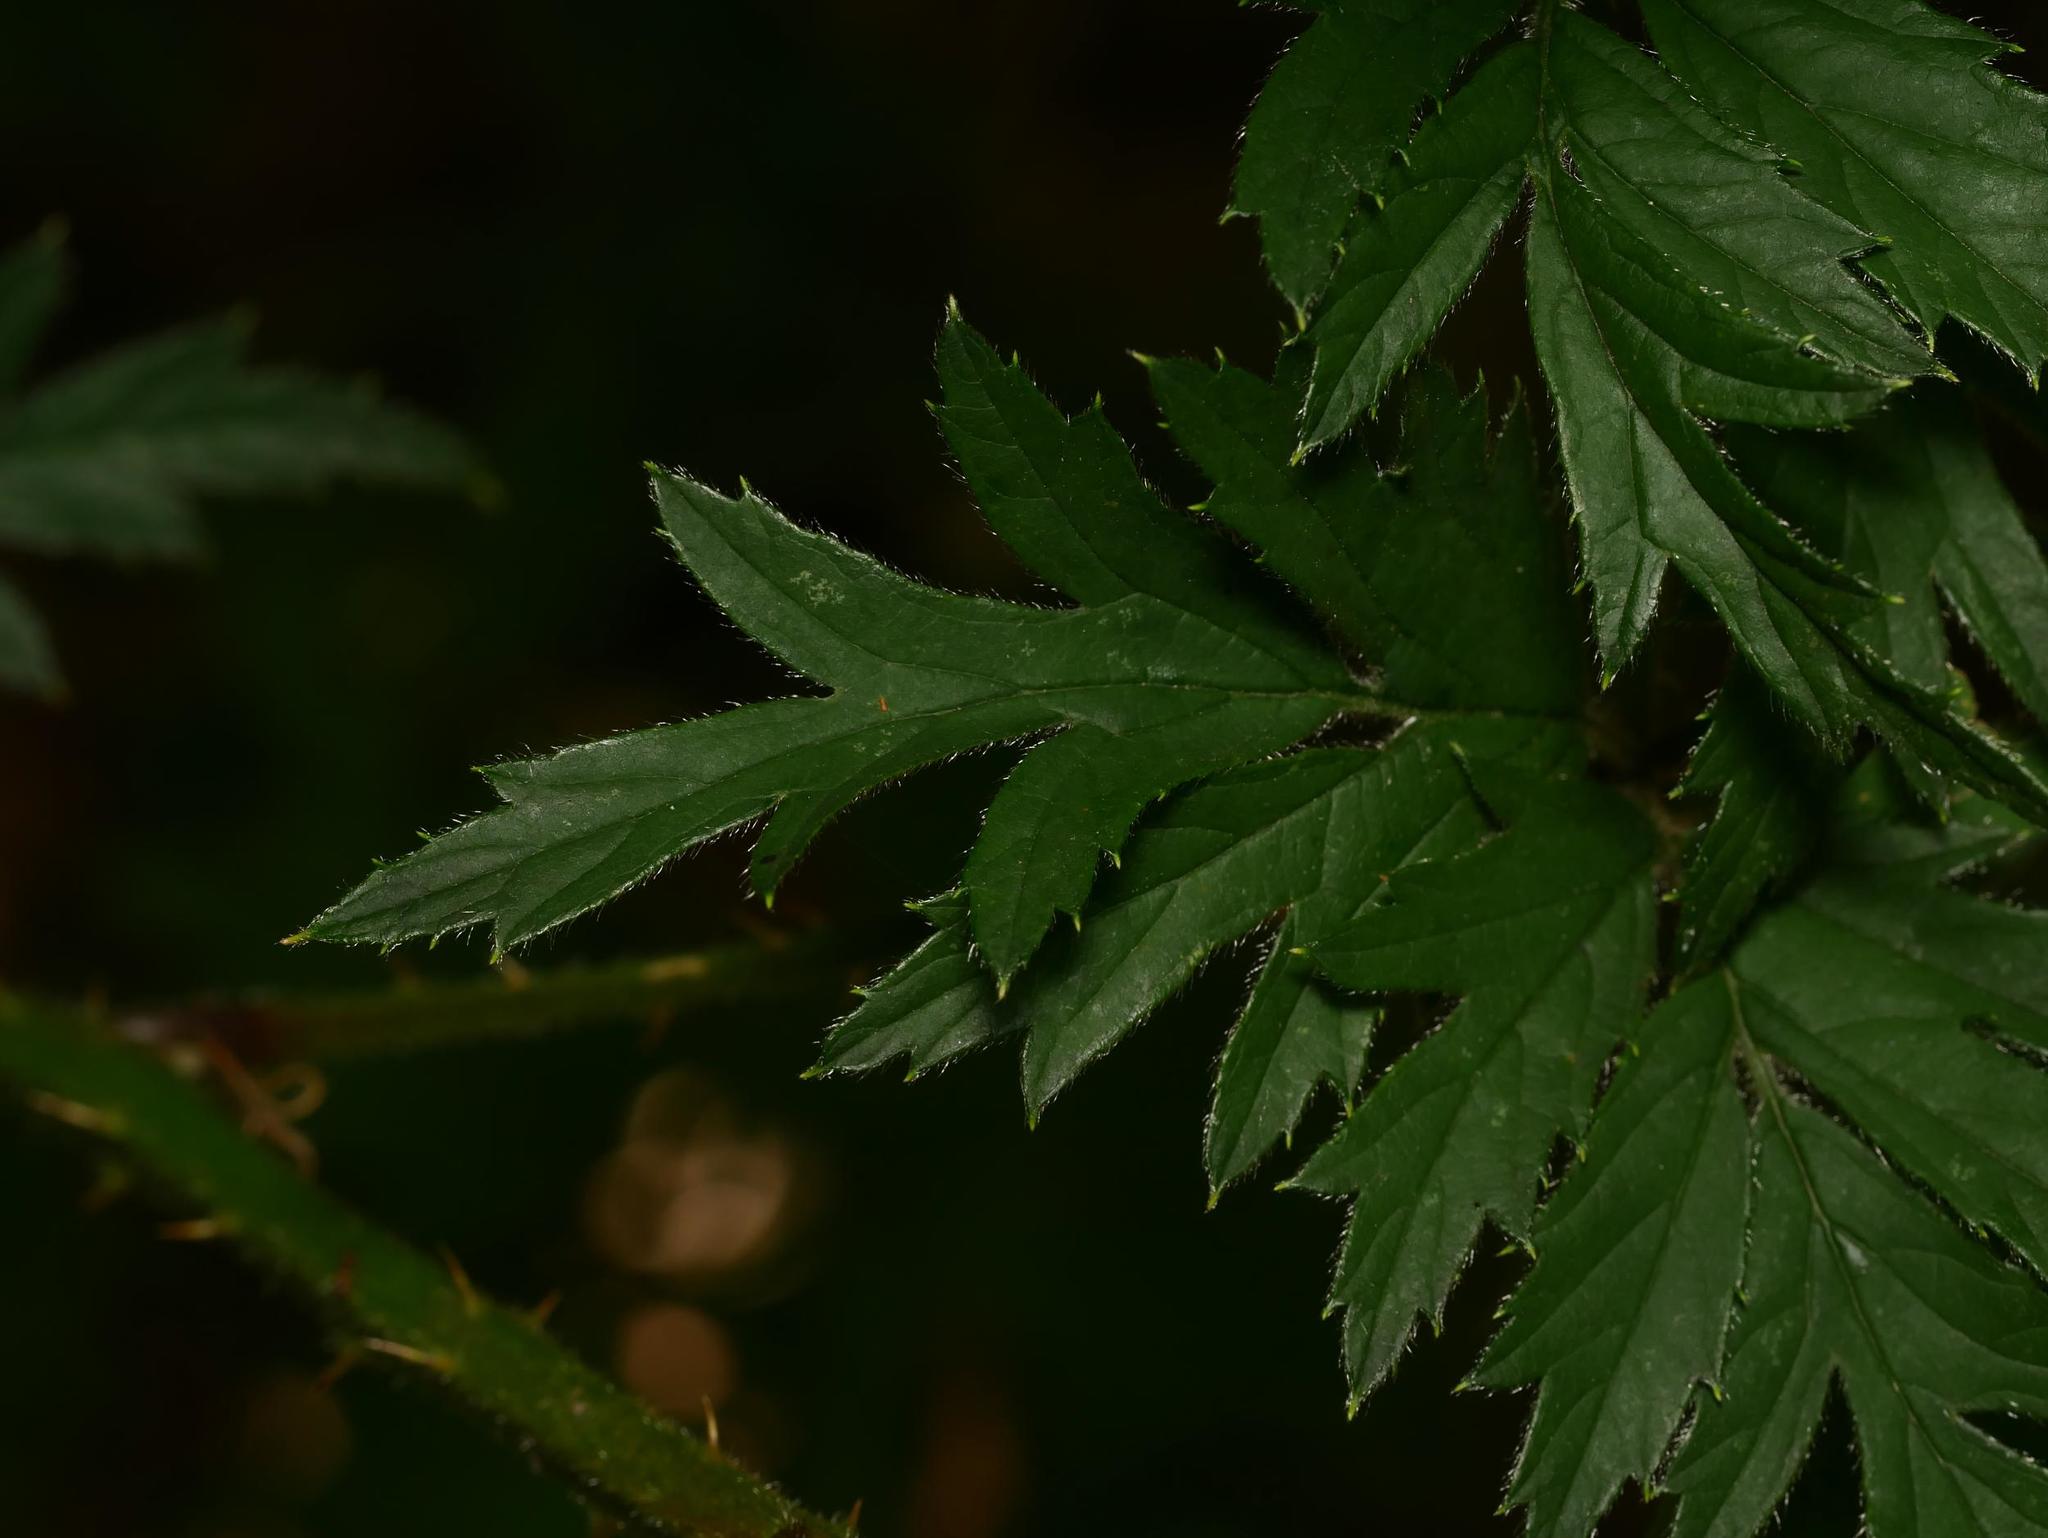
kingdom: Plantae
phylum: Tracheophyta
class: Magnoliopsida
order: Rosales
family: Rosaceae
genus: Rubus
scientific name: Rubus laciniatus
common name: Evergreen blackberry
